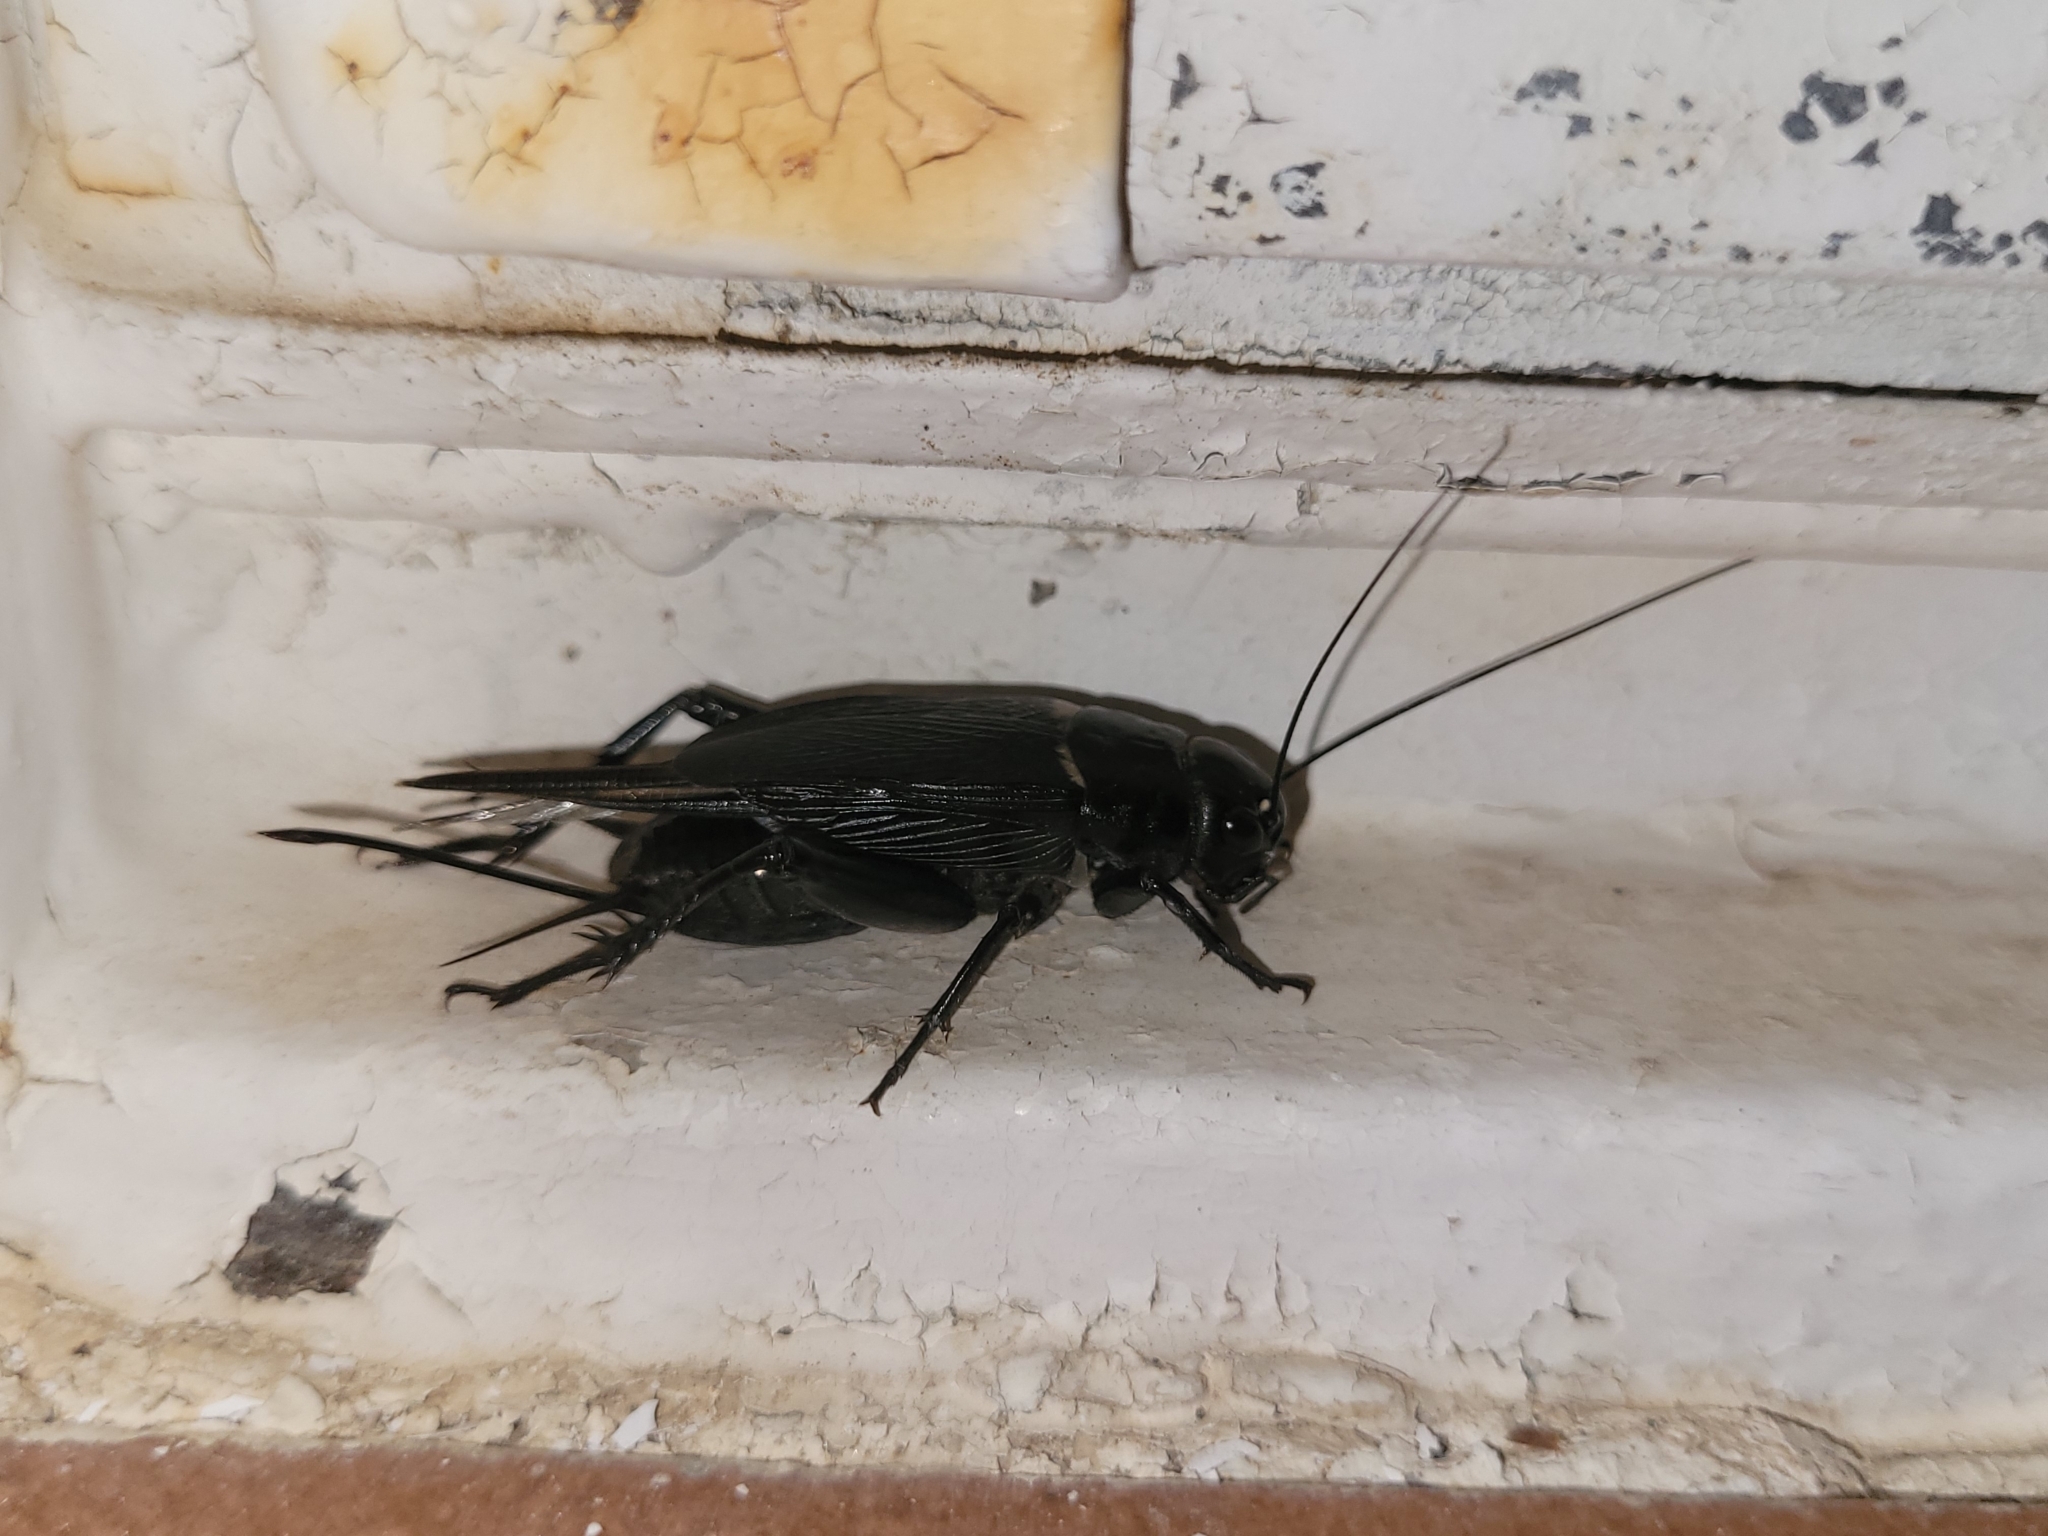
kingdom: Animalia
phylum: Arthropoda
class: Insecta
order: Orthoptera
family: Gryllidae
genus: Gryllus
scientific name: Gryllus bimaculatus
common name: Two-spotted cricket
